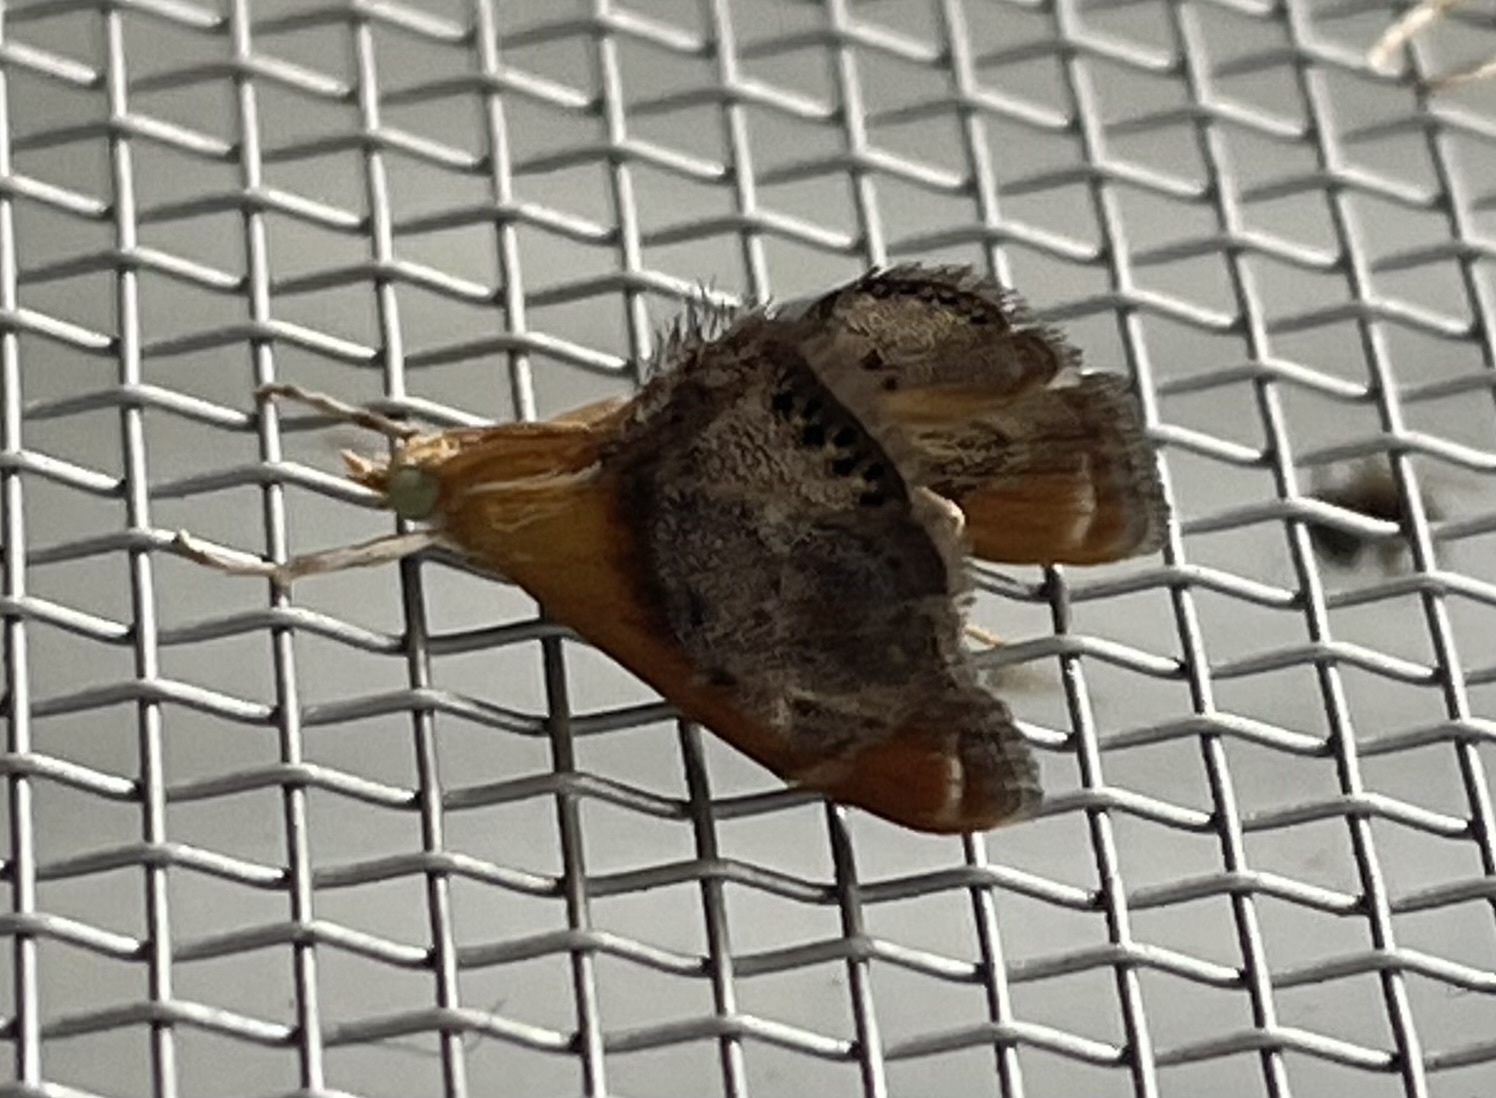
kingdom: Animalia
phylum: Arthropoda
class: Insecta
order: Lepidoptera
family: Crambidae
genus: Chalcoela
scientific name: Chalcoela iphitalis
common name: Sooty-winged chalcoela moth
